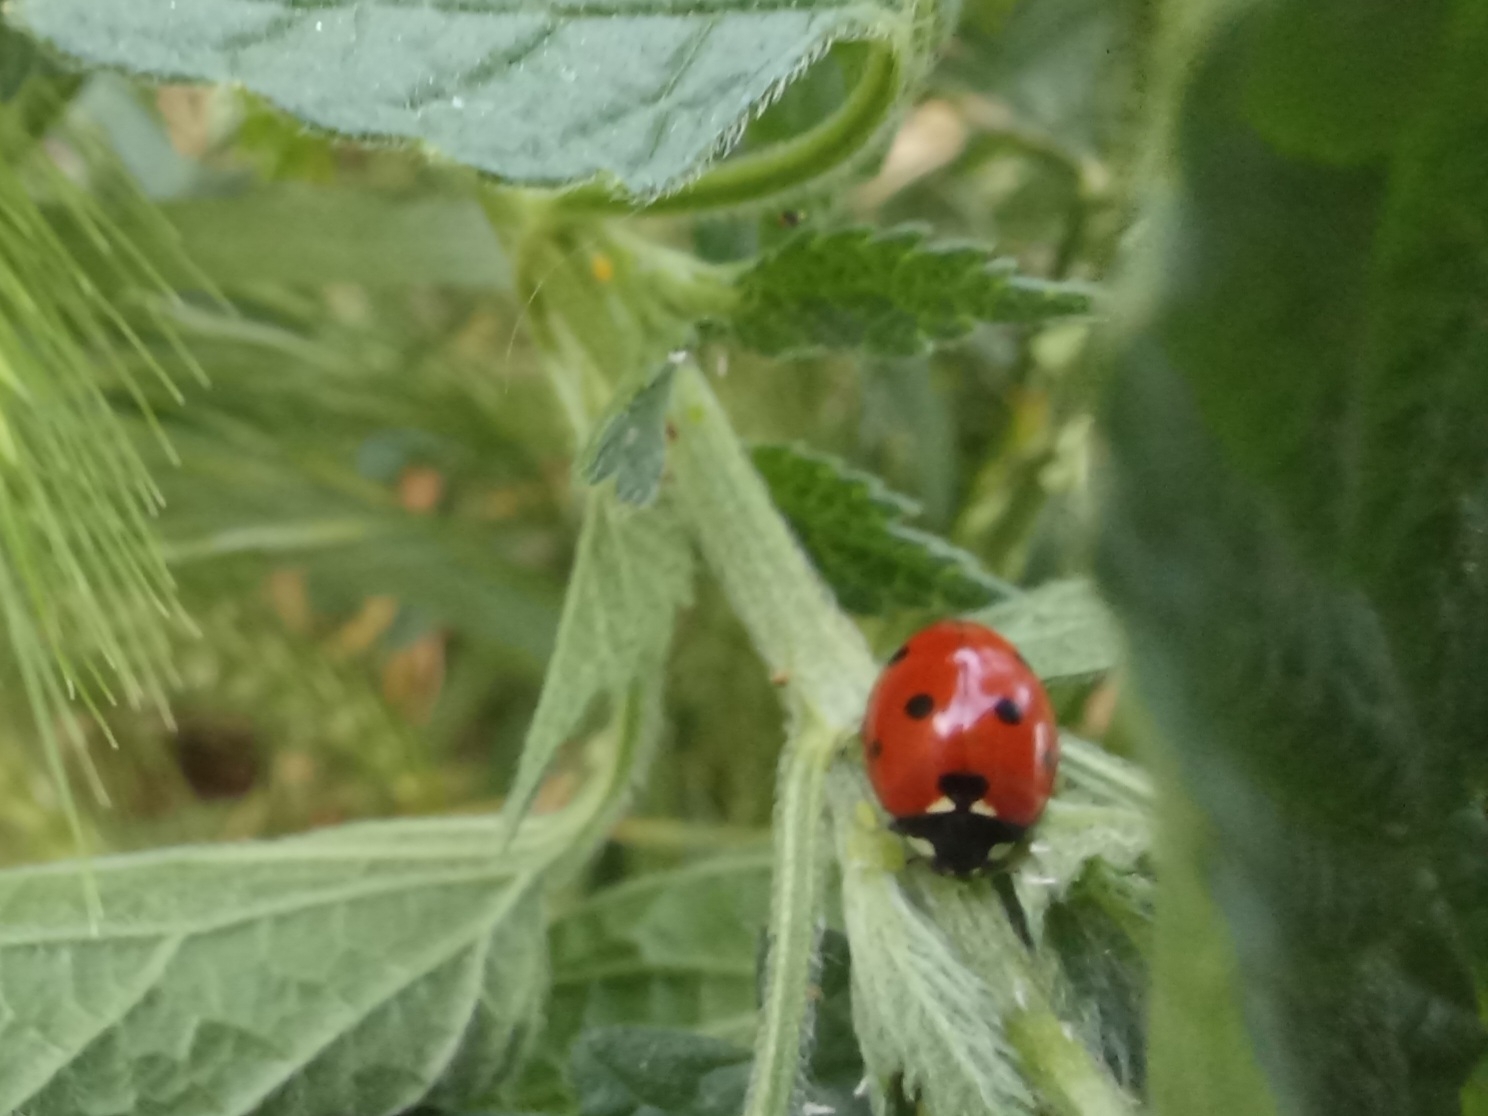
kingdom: Animalia
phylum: Arthropoda
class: Insecta
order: Coleoptera
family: Coccinellidae
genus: Coccinella
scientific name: Coccinella septempunctata
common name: Sevenspotted lady beetle
